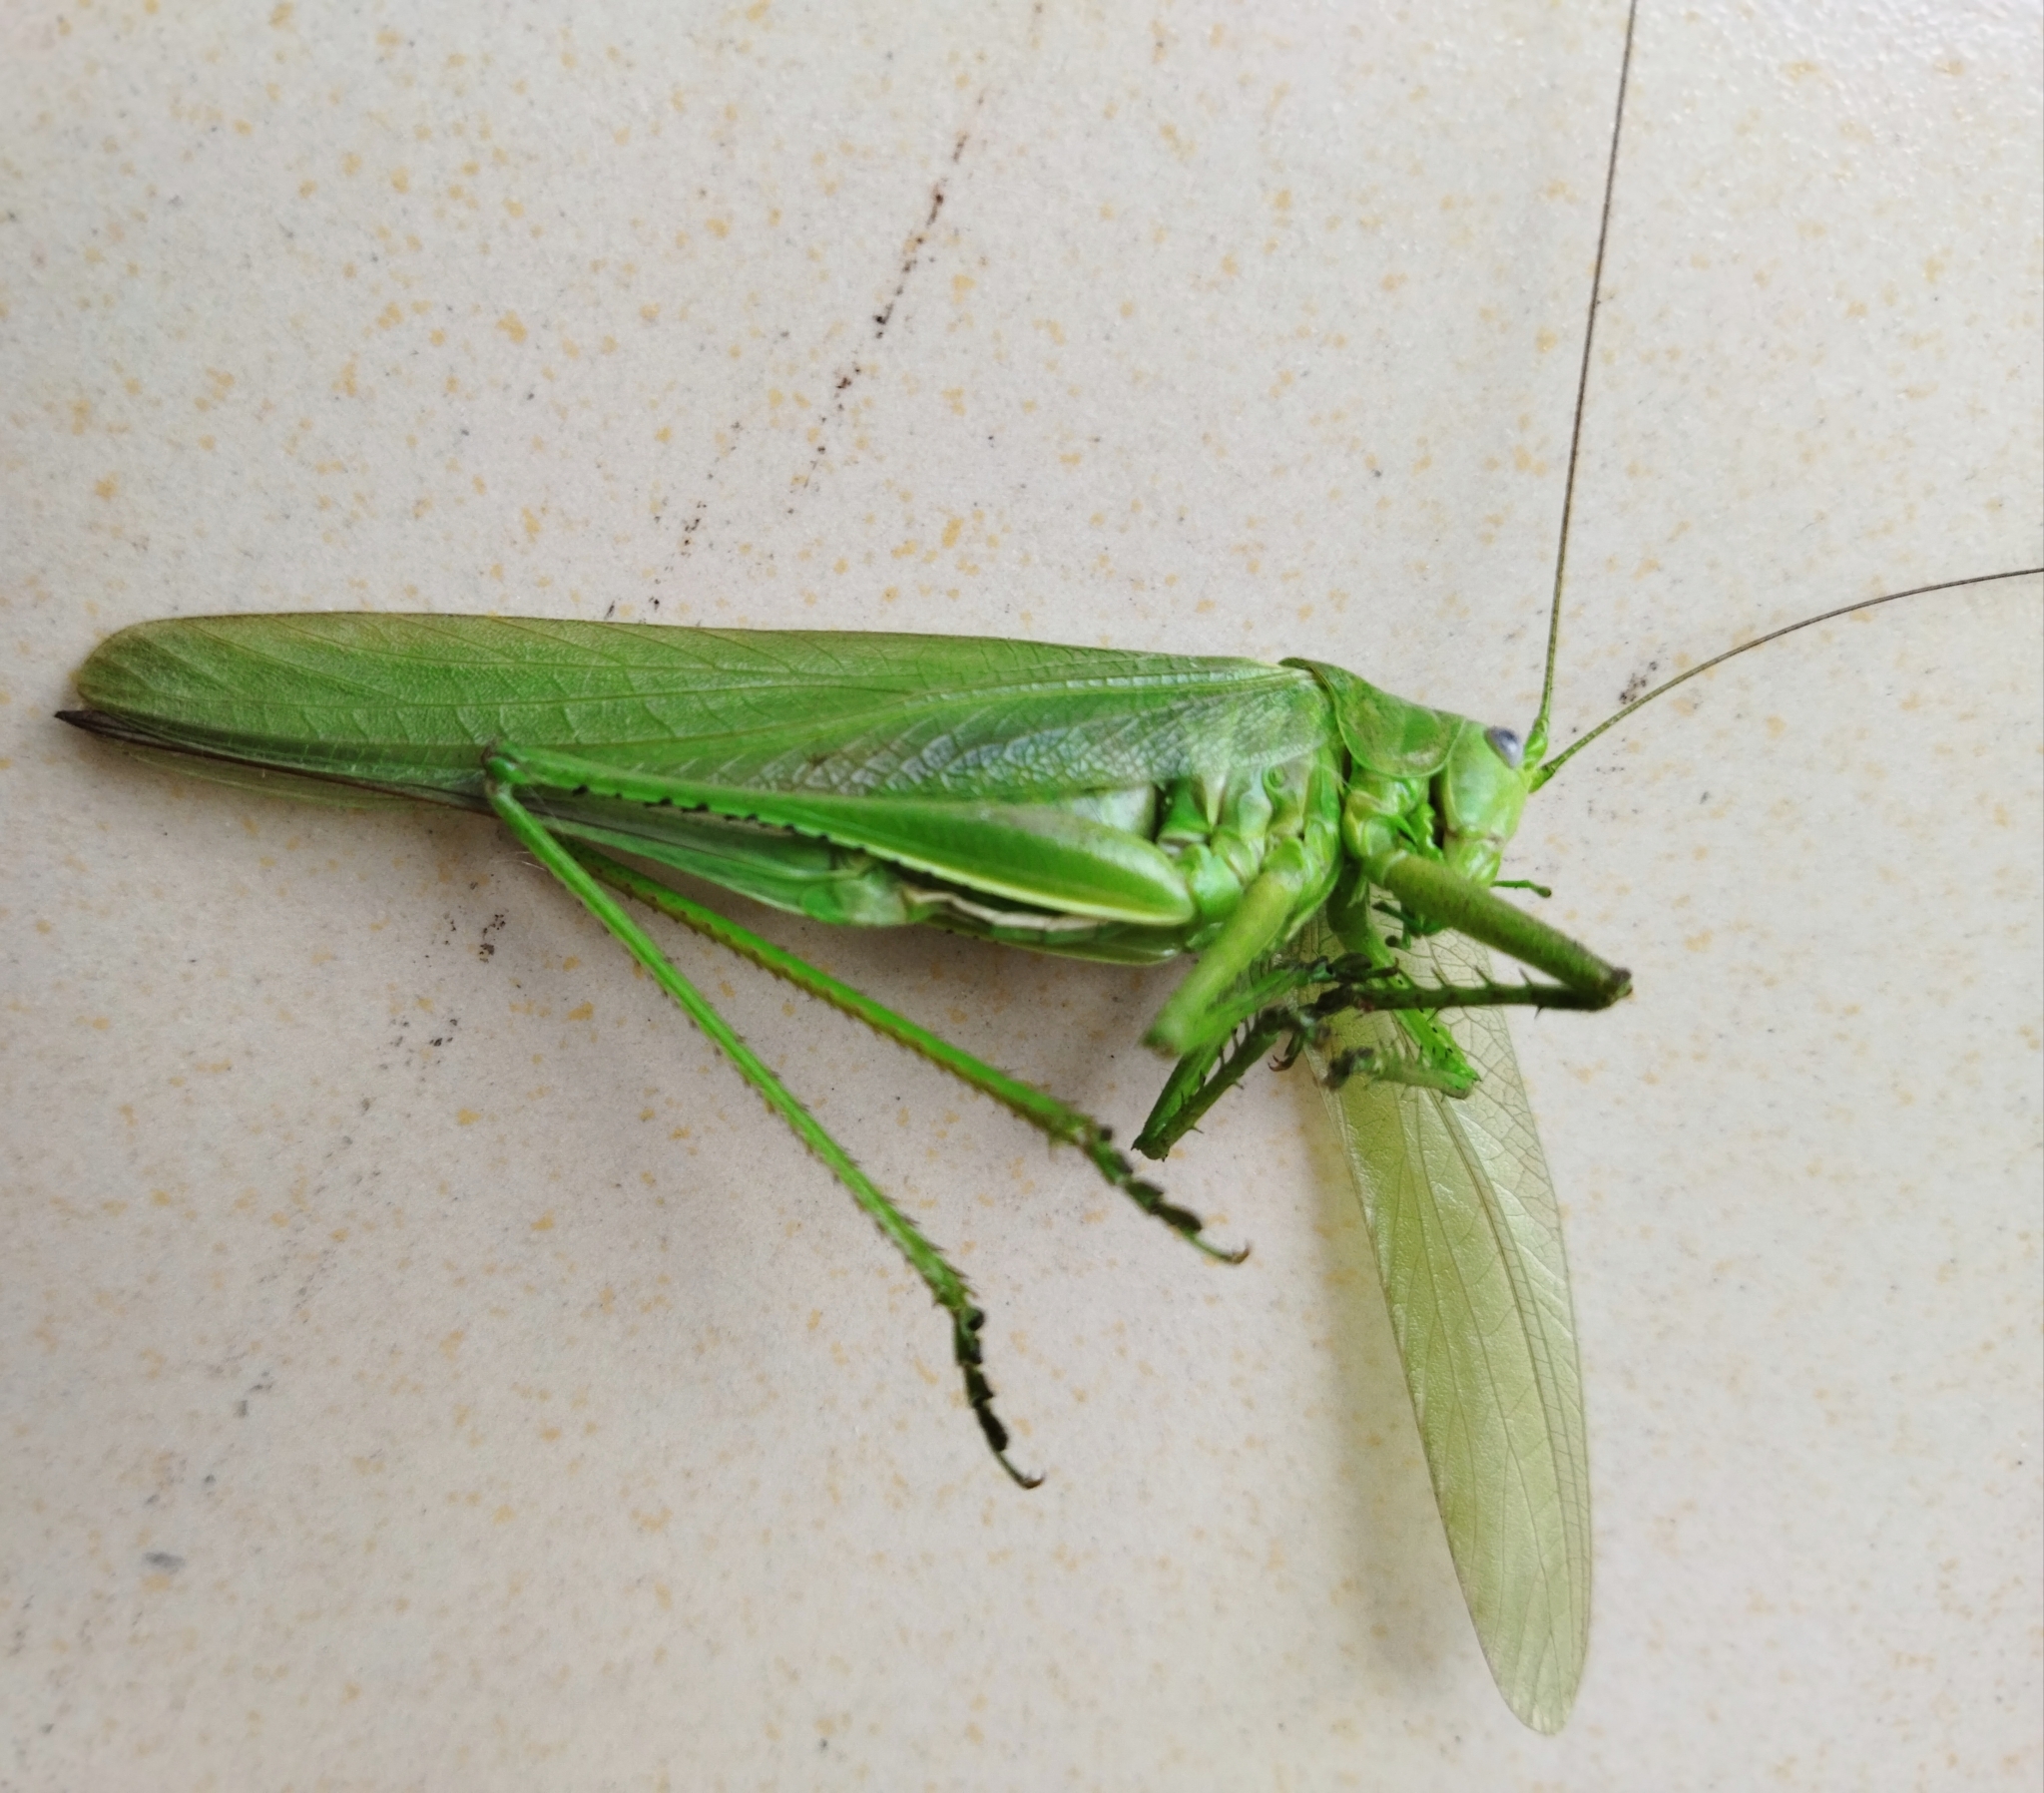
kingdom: Animalia
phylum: Arthropoda
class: Insecta
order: Orthoptera
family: Tettigoniidae
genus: Tettigonia
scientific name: Tettigonia caudata
